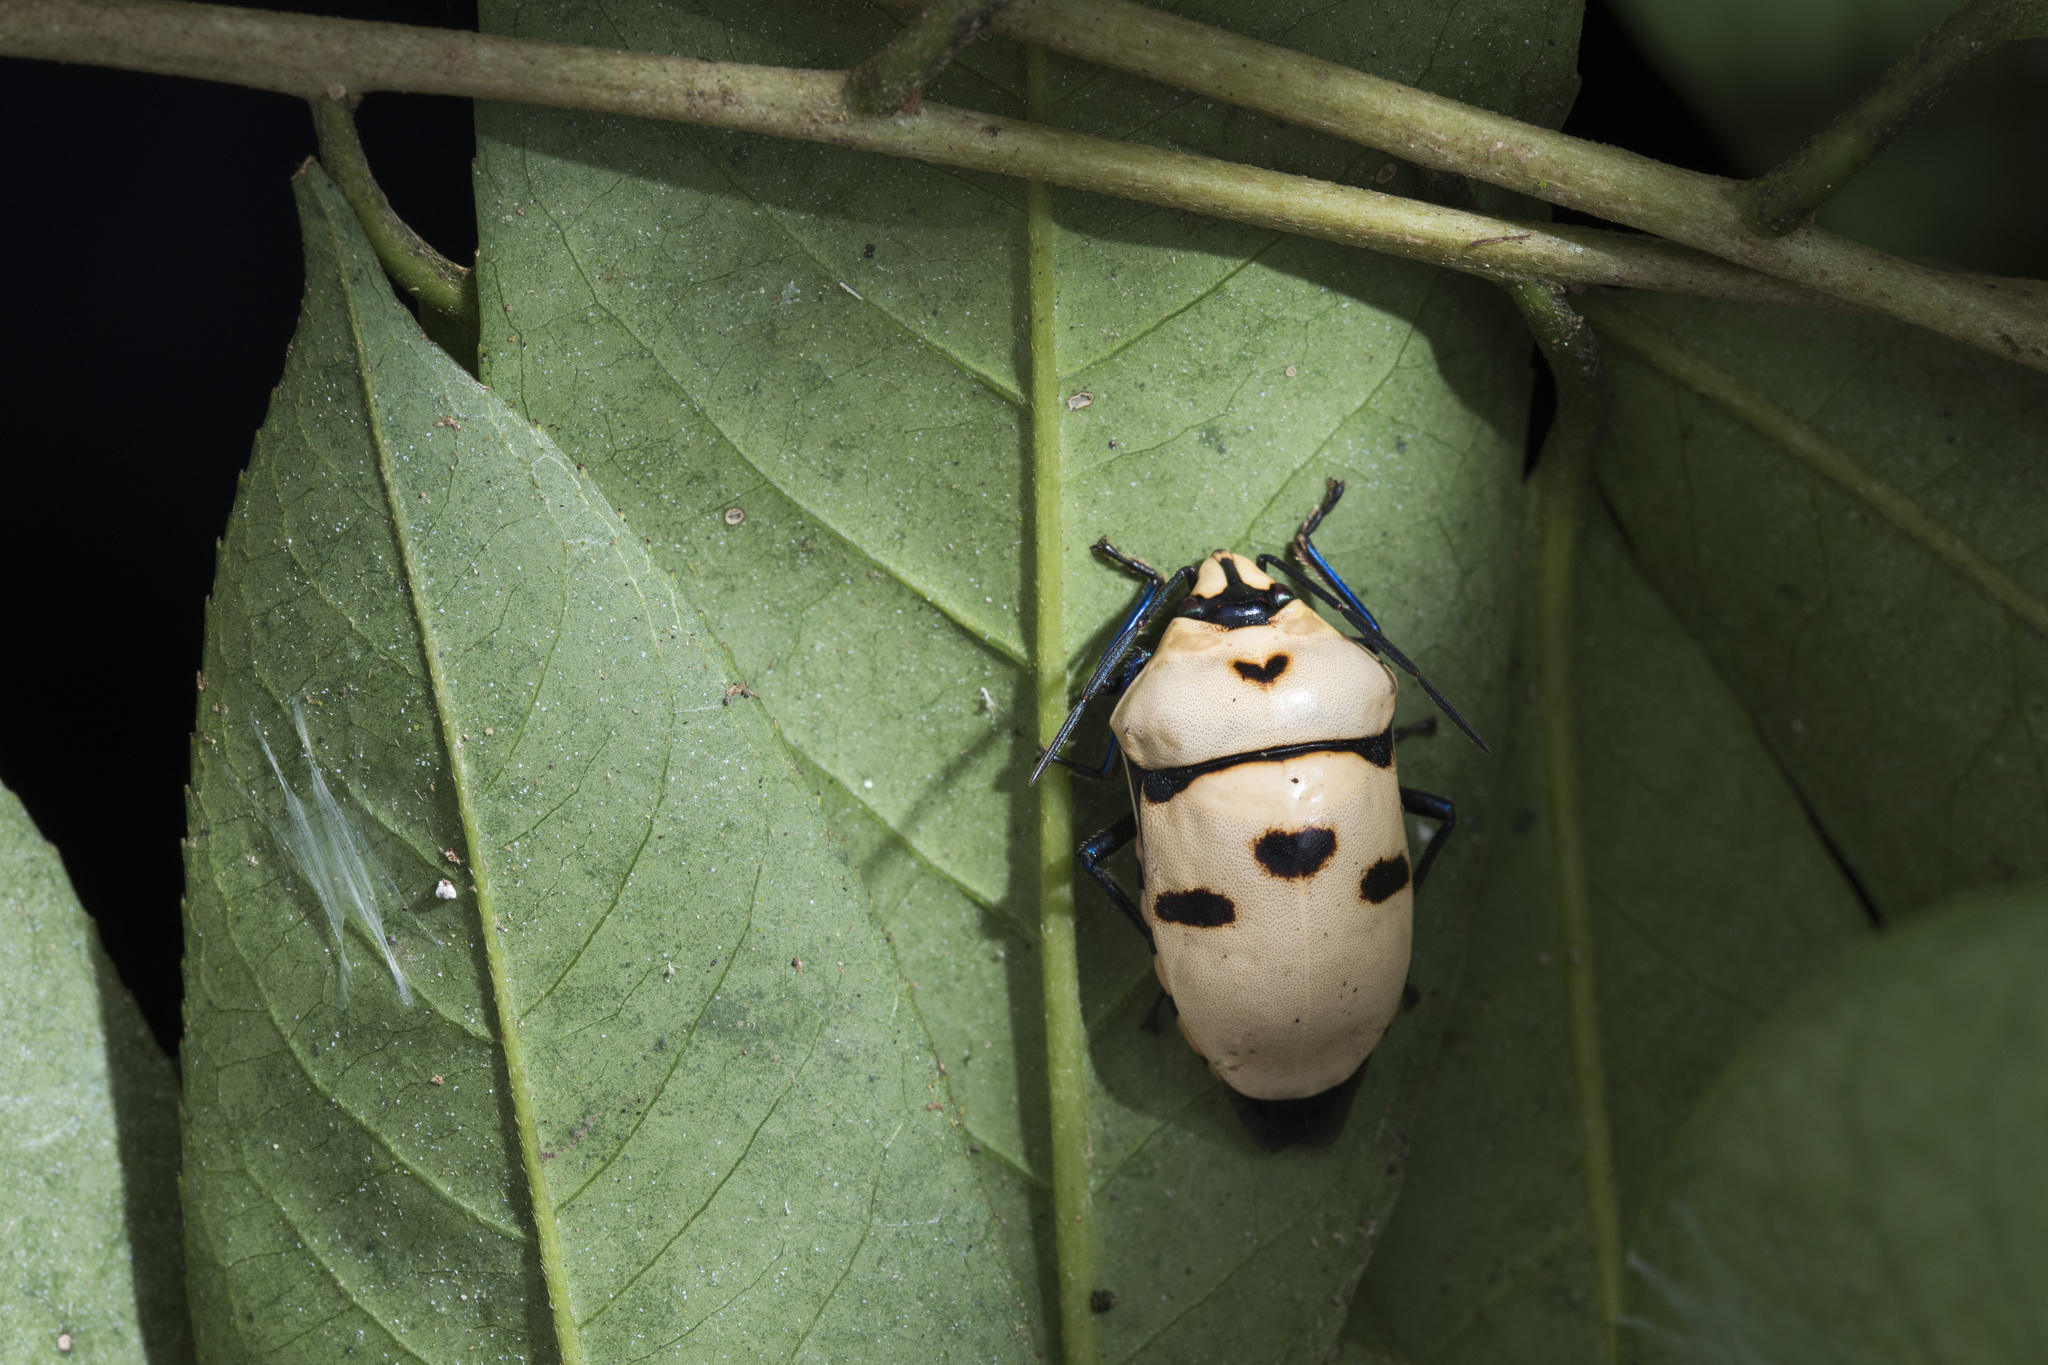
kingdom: Animalia
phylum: Arthropoda
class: Insecta
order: Hemiptera
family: Scutelleridae
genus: Eucorysses
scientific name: Eucorysses grandis
